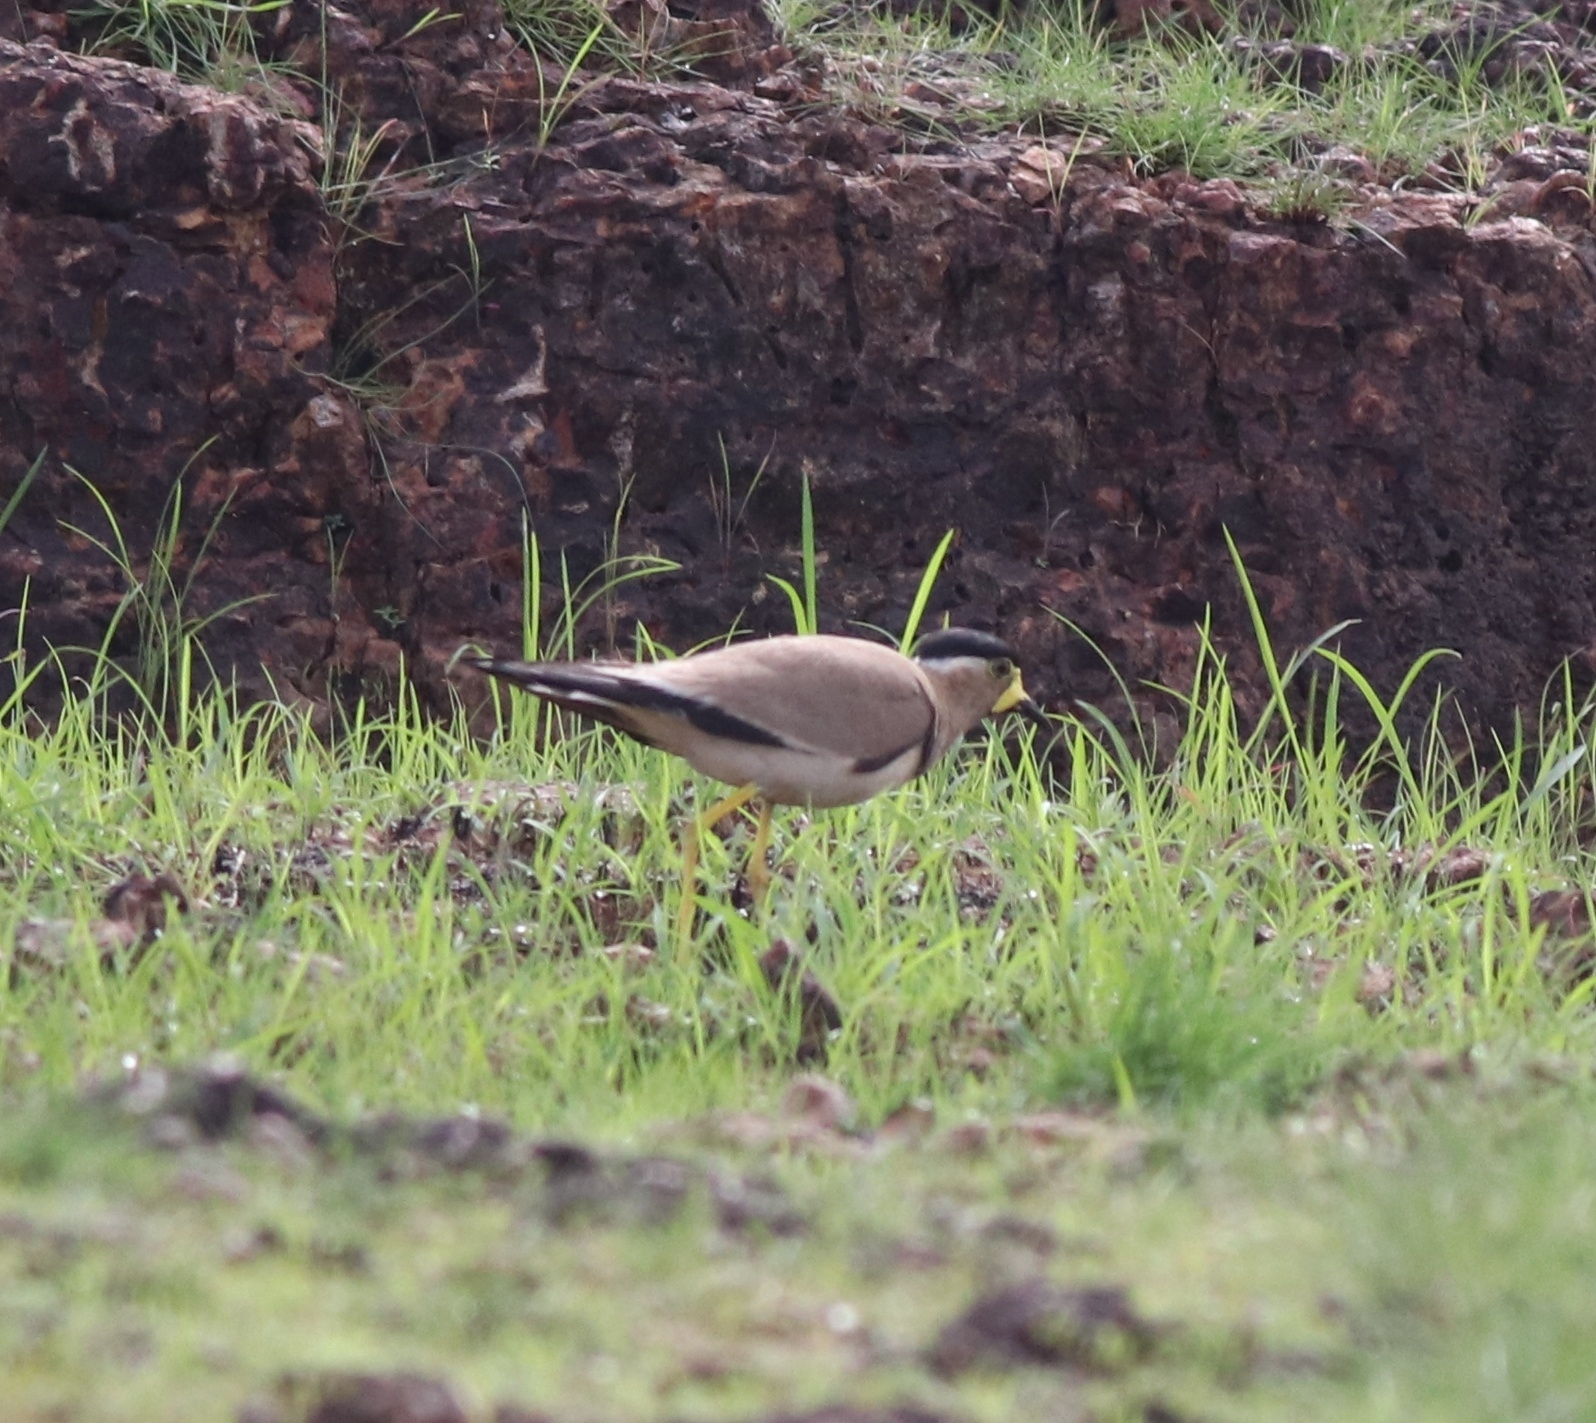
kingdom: Animalia
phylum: Chordata
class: Aves
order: Charadriiformes
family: Charadriidae
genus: Vanellus
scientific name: Vanellus malabaricus
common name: Yellow-wattled lapwing
